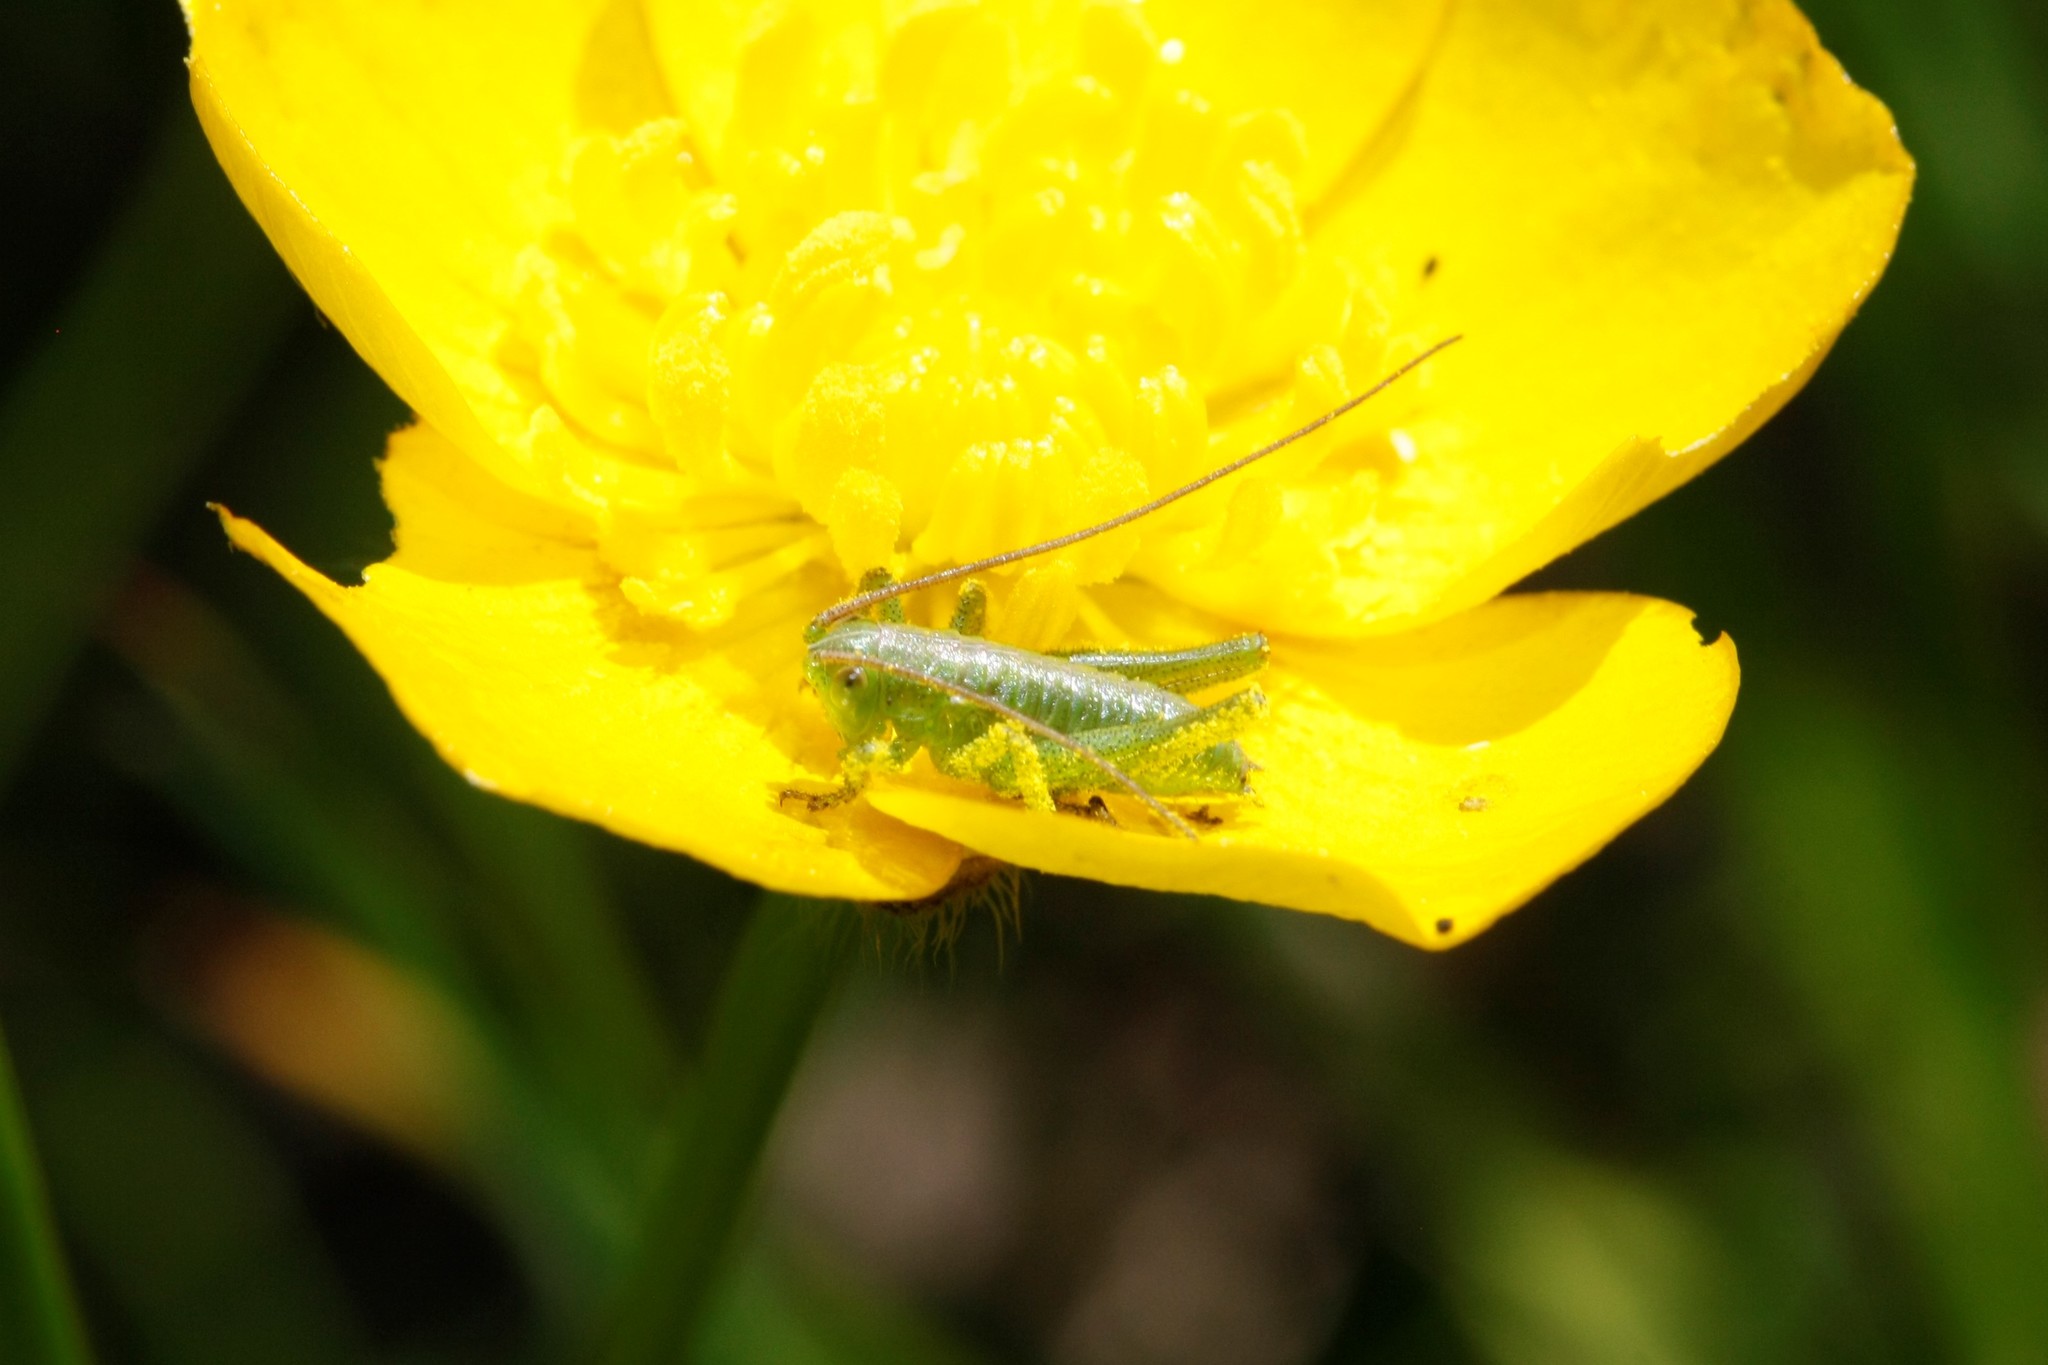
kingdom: Animalia
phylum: Arthropoda
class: Insecta
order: Orthoptera
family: Tettigoniidae
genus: Tettigonia
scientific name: Tettigonia viridissima
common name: Great green bush-cricket
